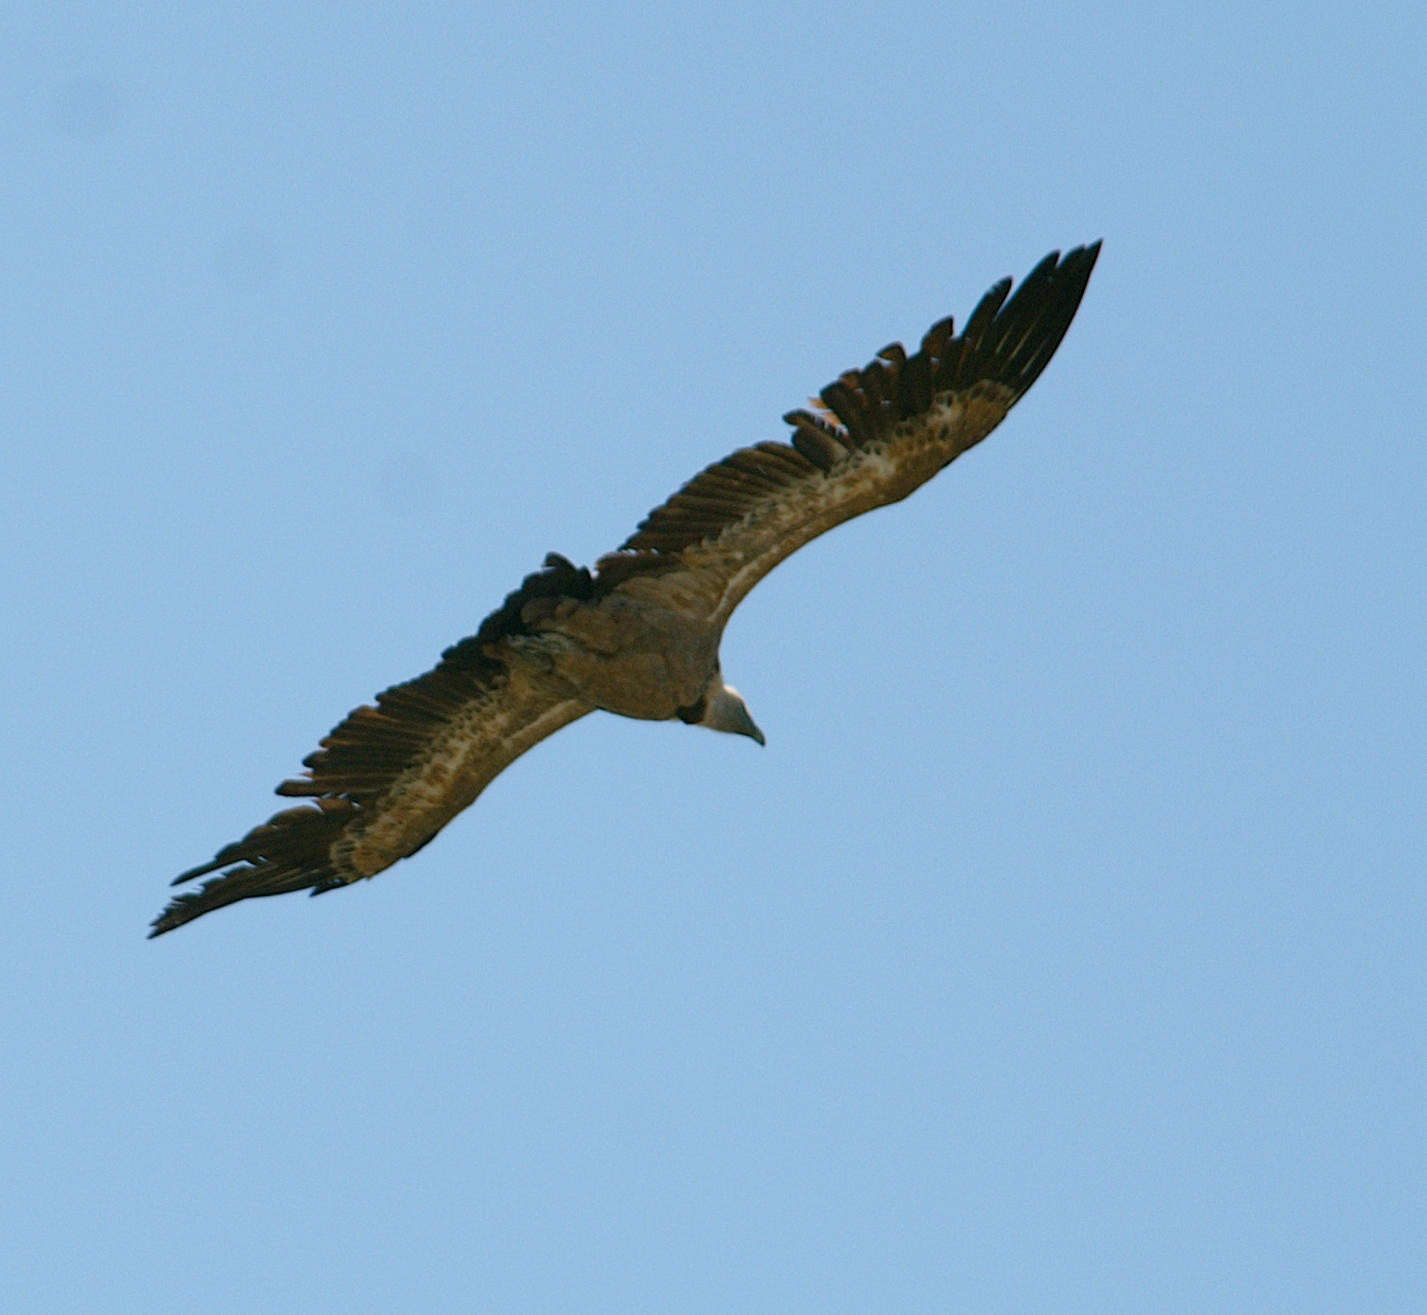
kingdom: Animalia
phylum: Chordata
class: Aves
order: Accipitriformes
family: Accipitridae
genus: Gyps
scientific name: Gyps fulvus
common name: Griffon vulture
